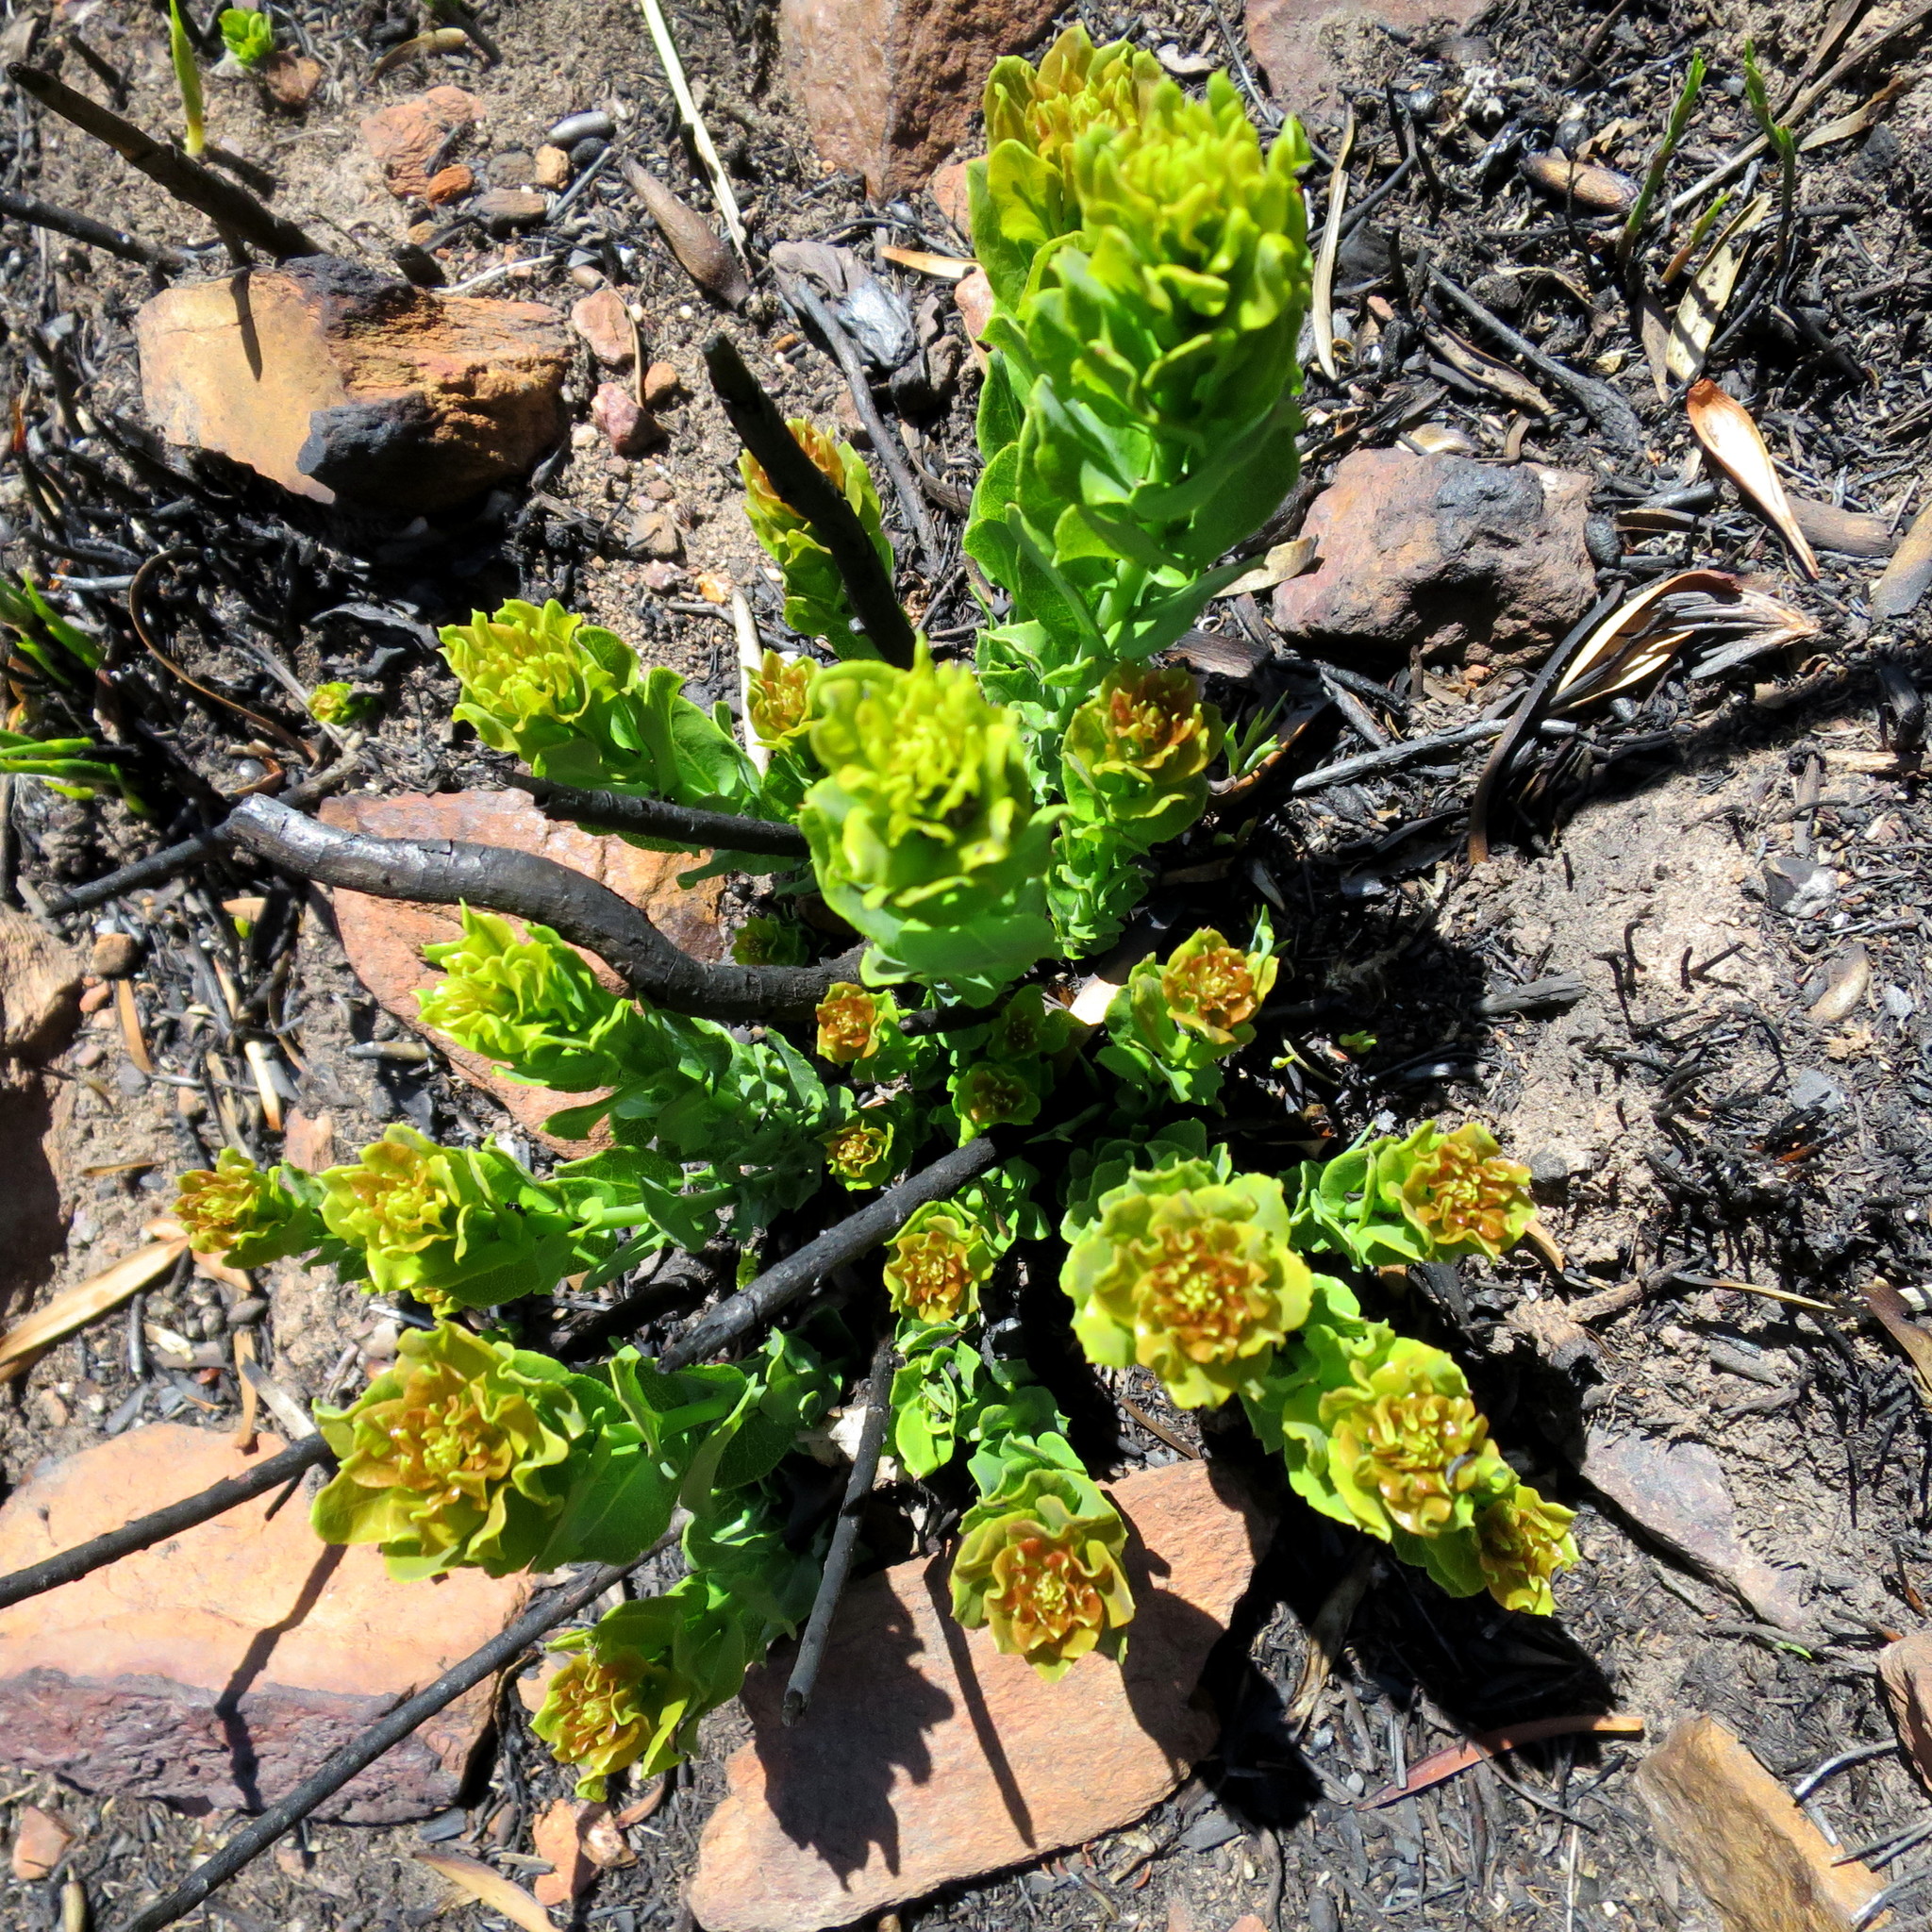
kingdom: Plantae
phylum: Tracheophyta
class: Magnoliopsida
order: Fagales
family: Myricaceae
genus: Morella
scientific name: Morella humilis
